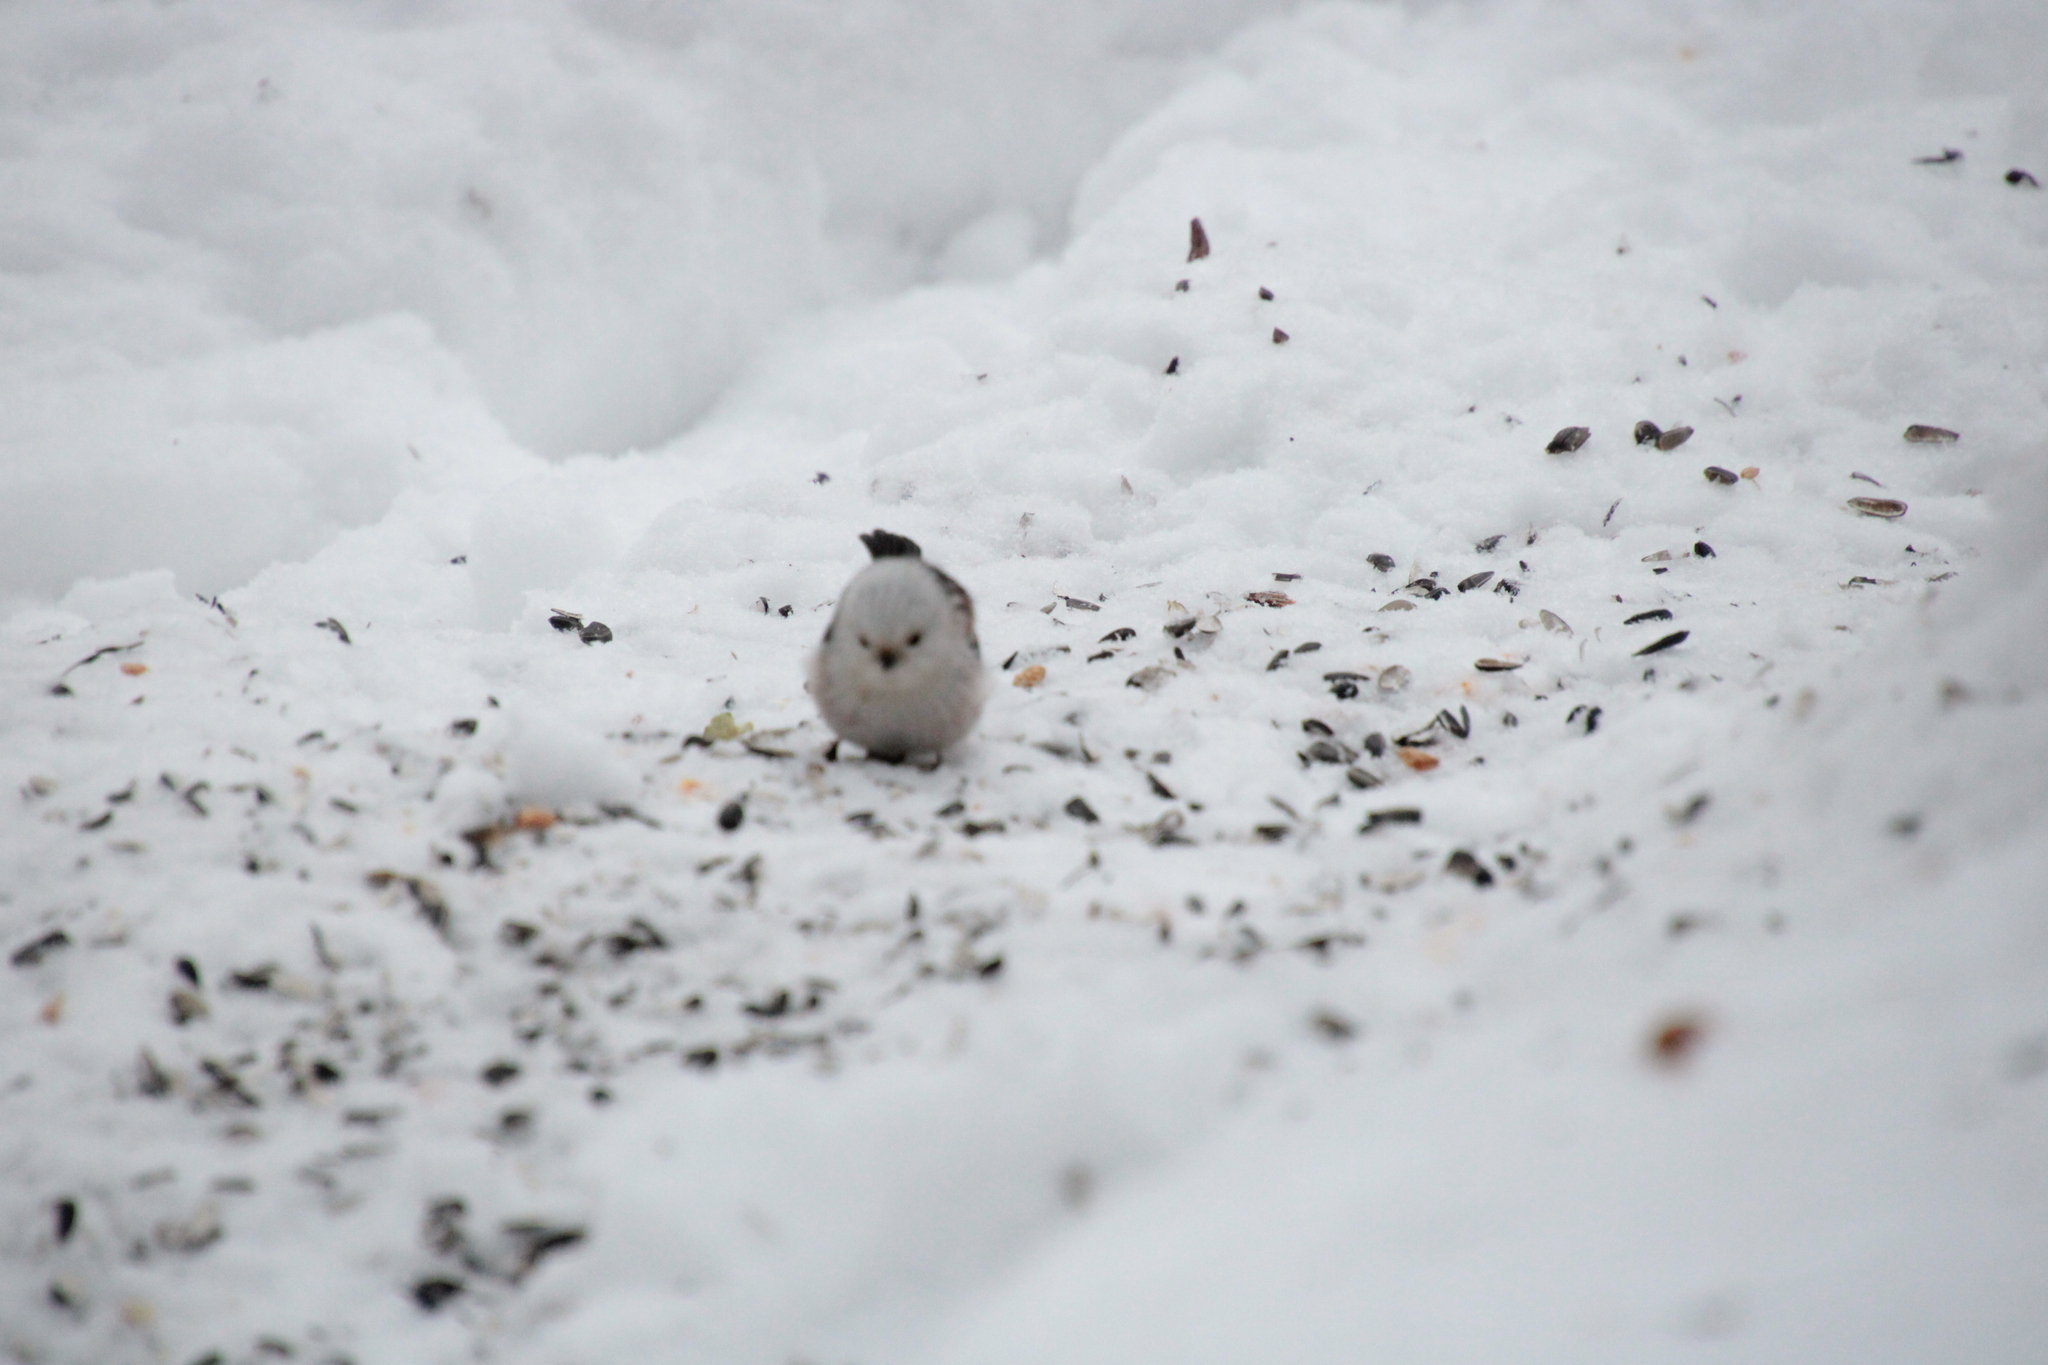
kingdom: Animalia
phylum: Chordata
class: Aves
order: Passeriformes
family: Aegithalidae
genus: Aegithalos
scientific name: Aegithalos caudatus
